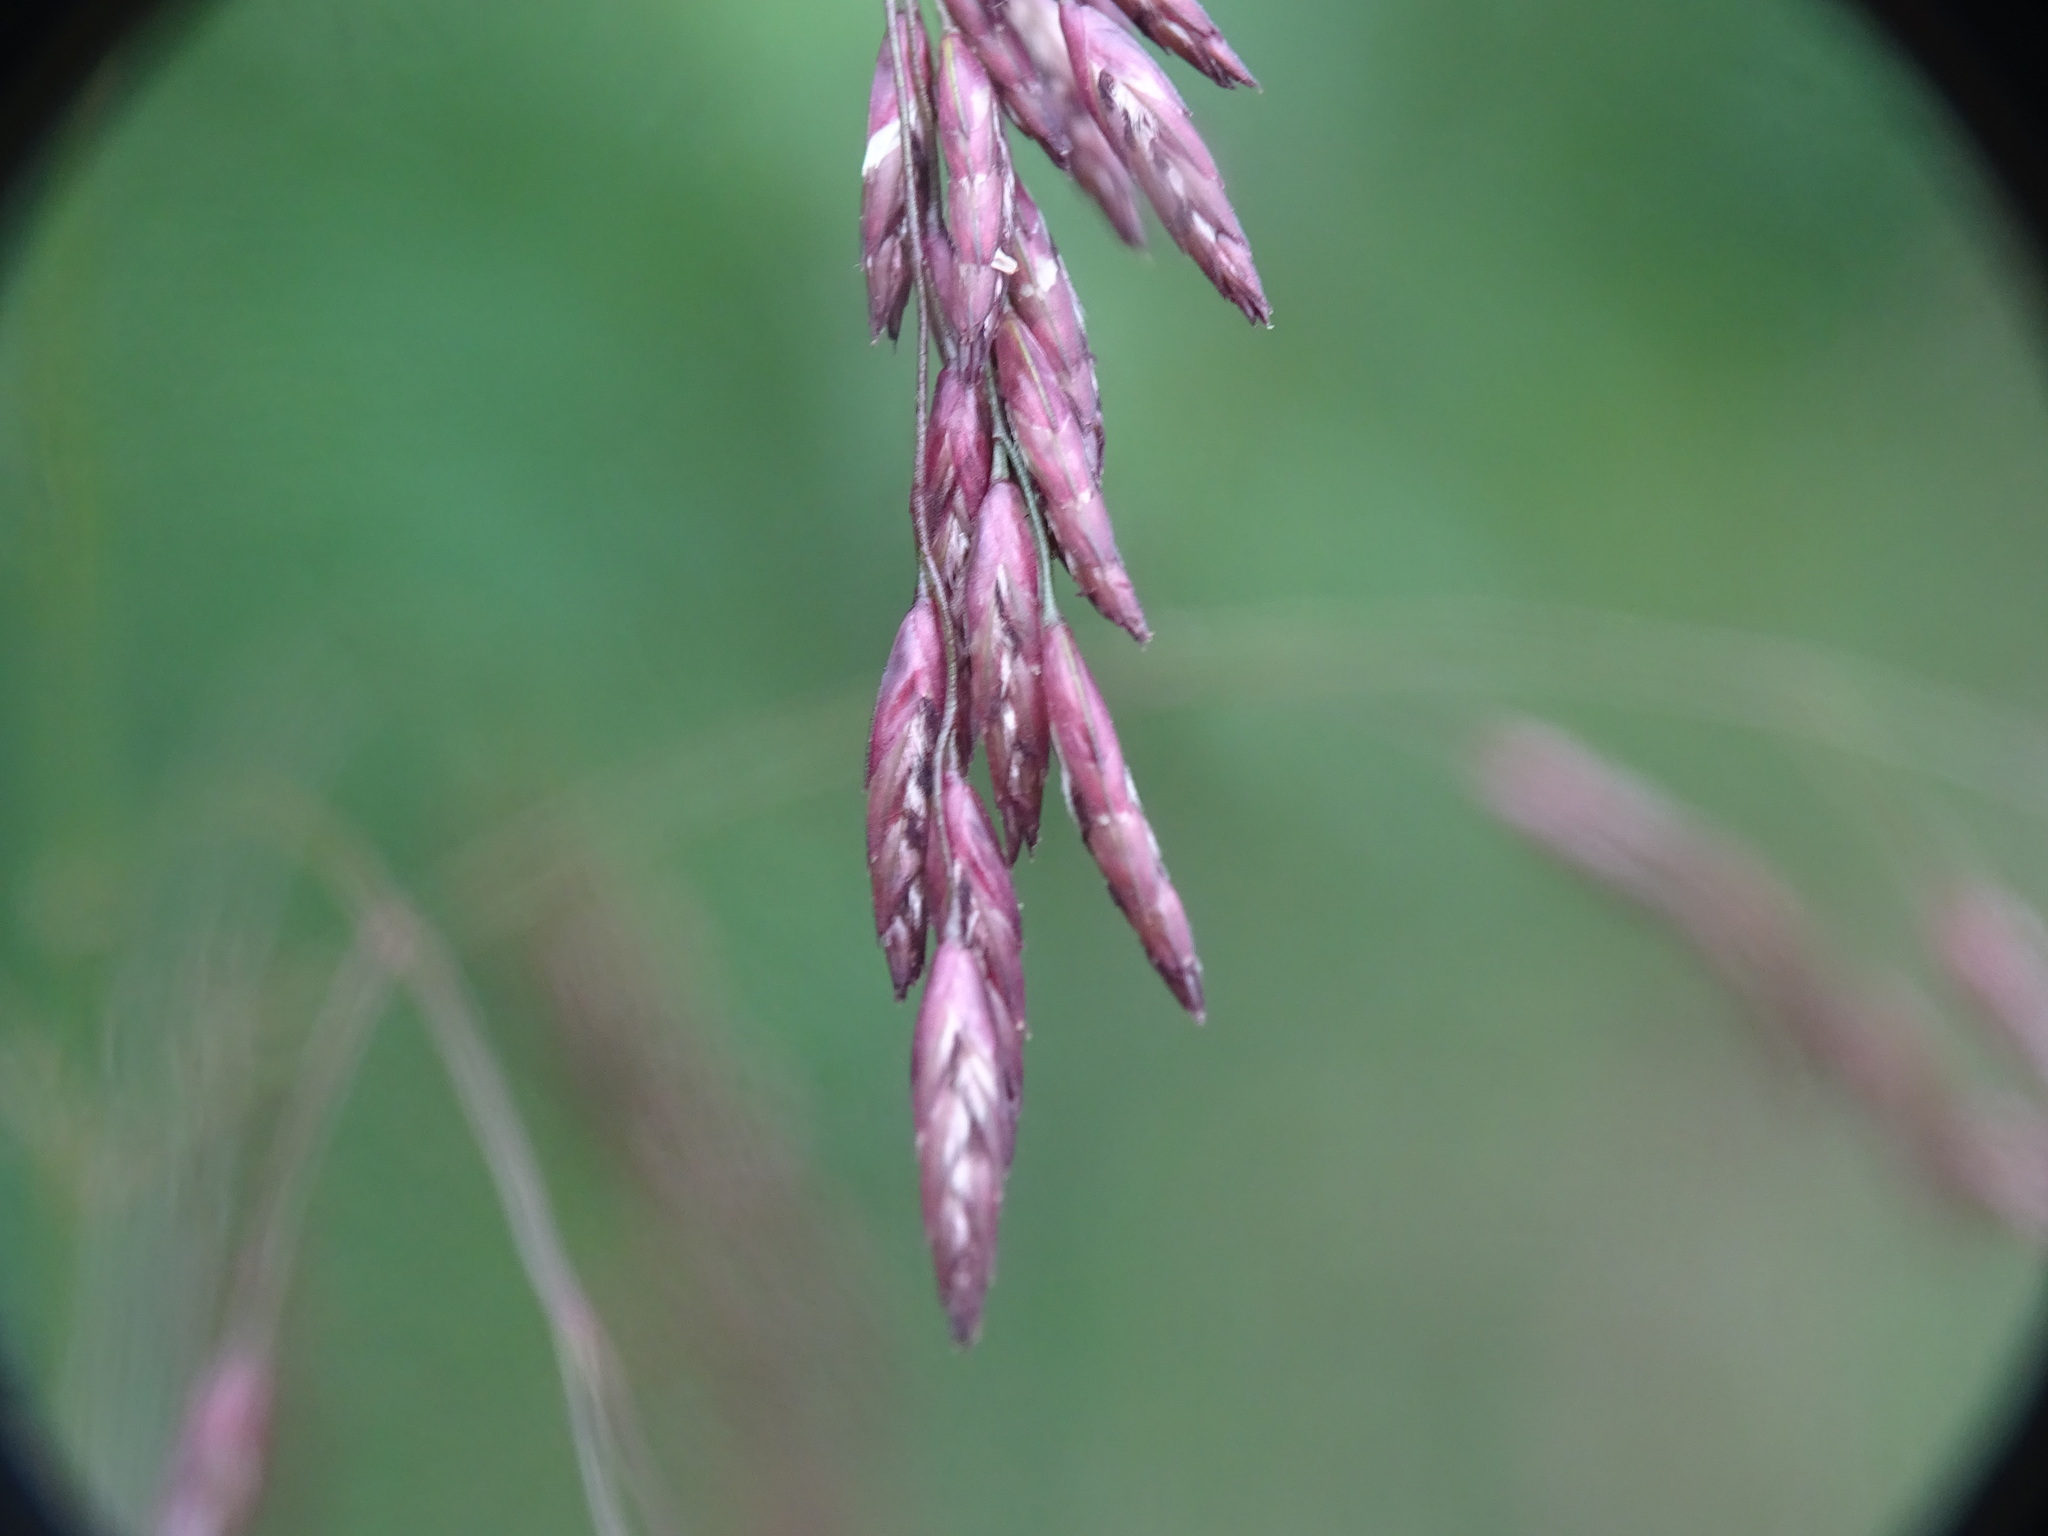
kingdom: Plantae
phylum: Tracheophyta
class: Liliopsida
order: Poales
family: Poaceae
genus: Tridens
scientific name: Tridens flavus
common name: Purpletop
